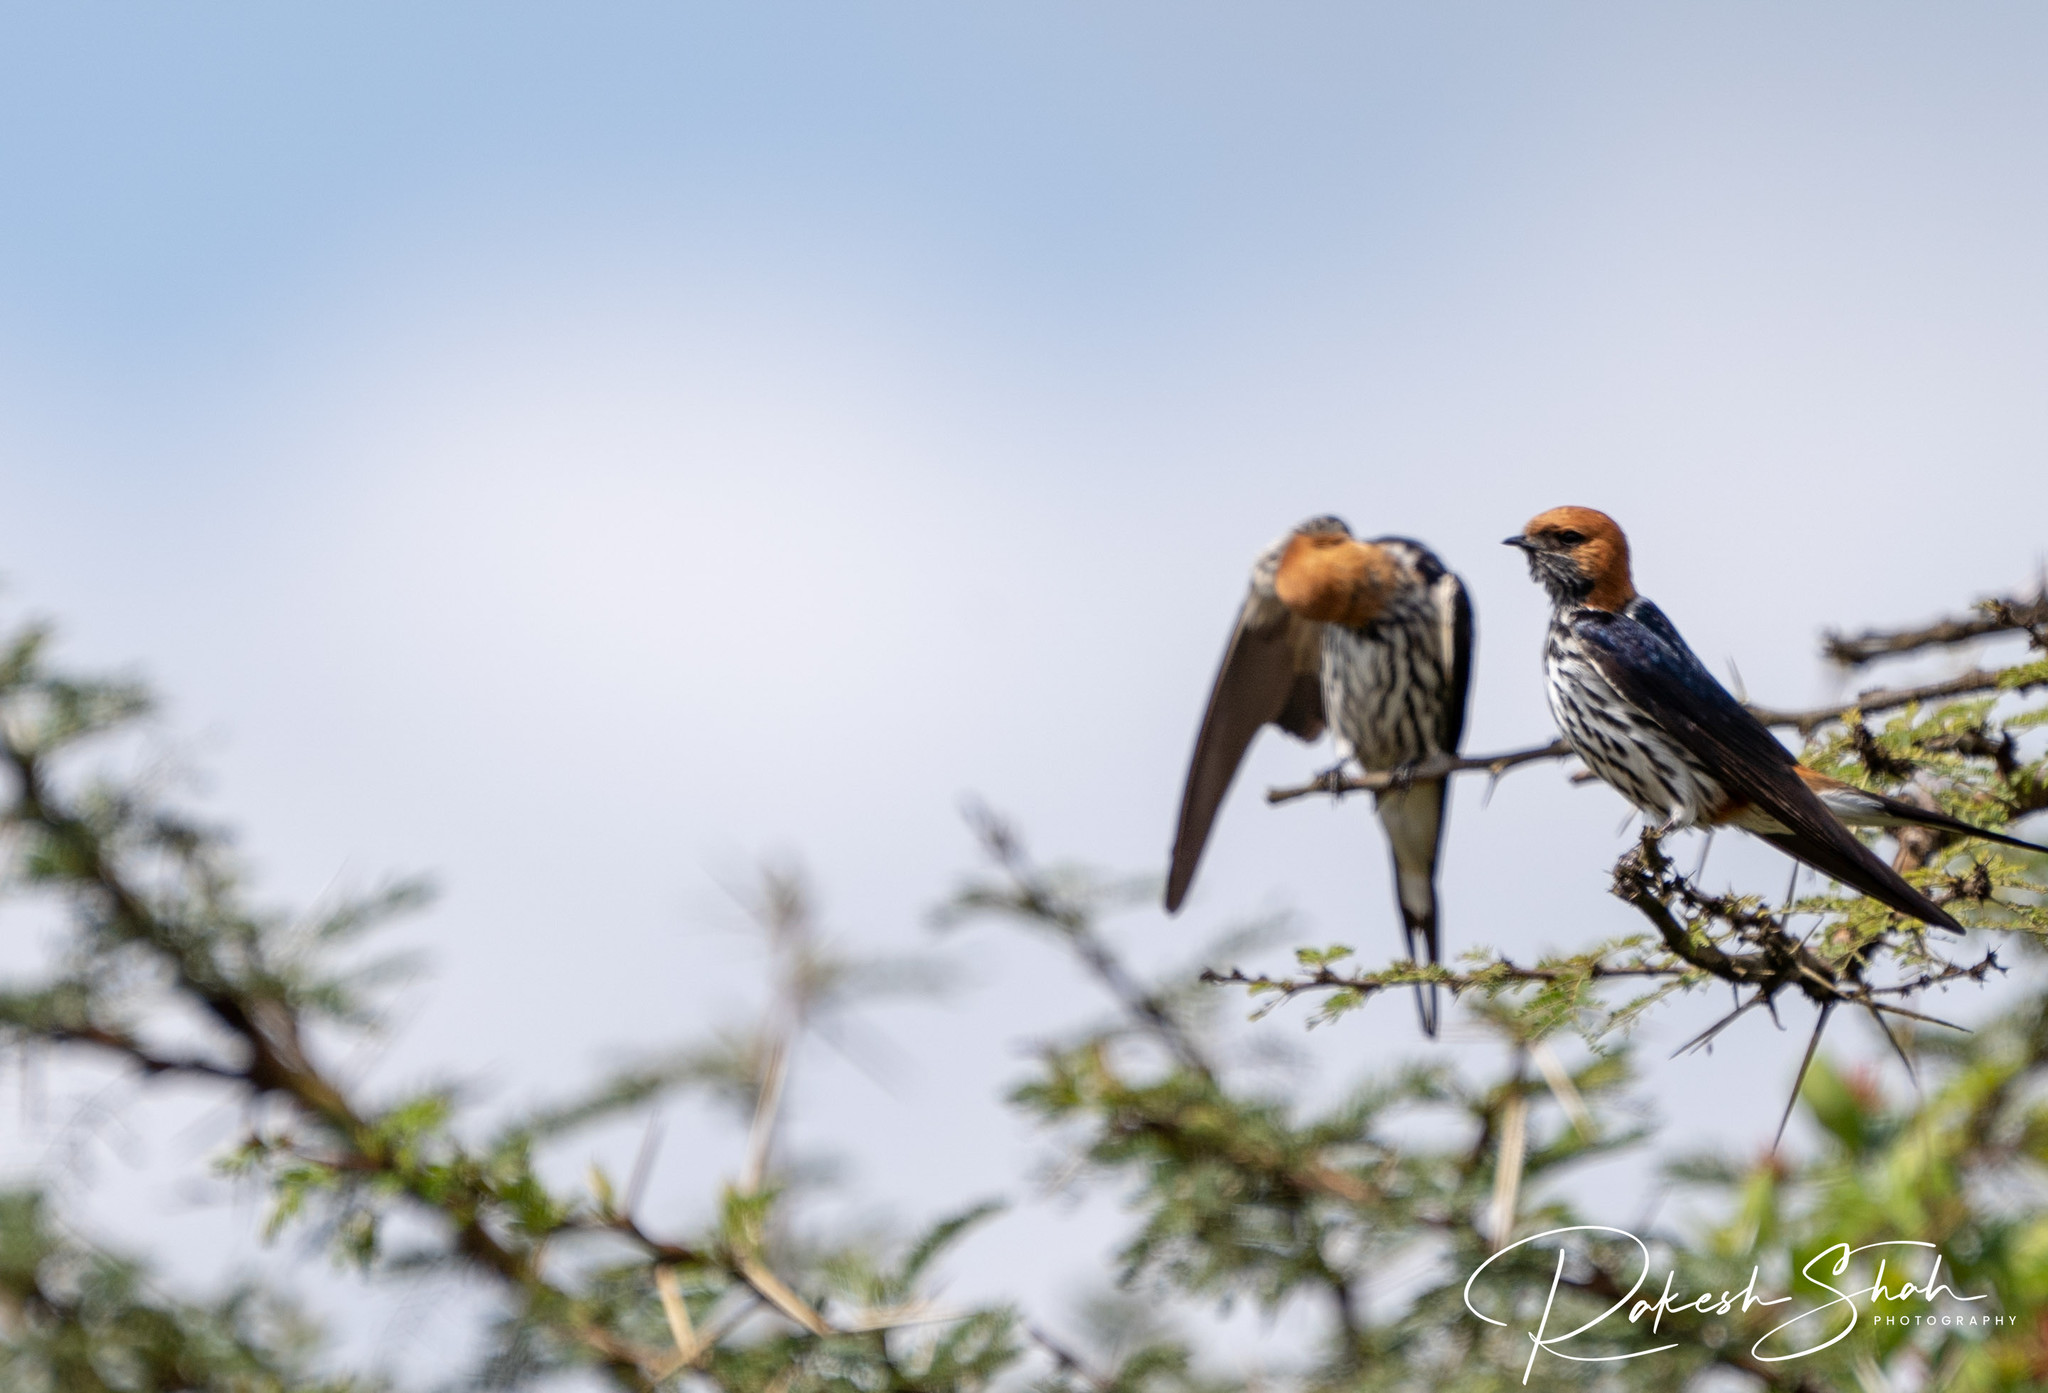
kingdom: Animalia
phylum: Chordata
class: Aves
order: Passeriformes
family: Hirundinidae
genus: Cecropis
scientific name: Cecropis abyssinica
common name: Lesser striped-swallow
